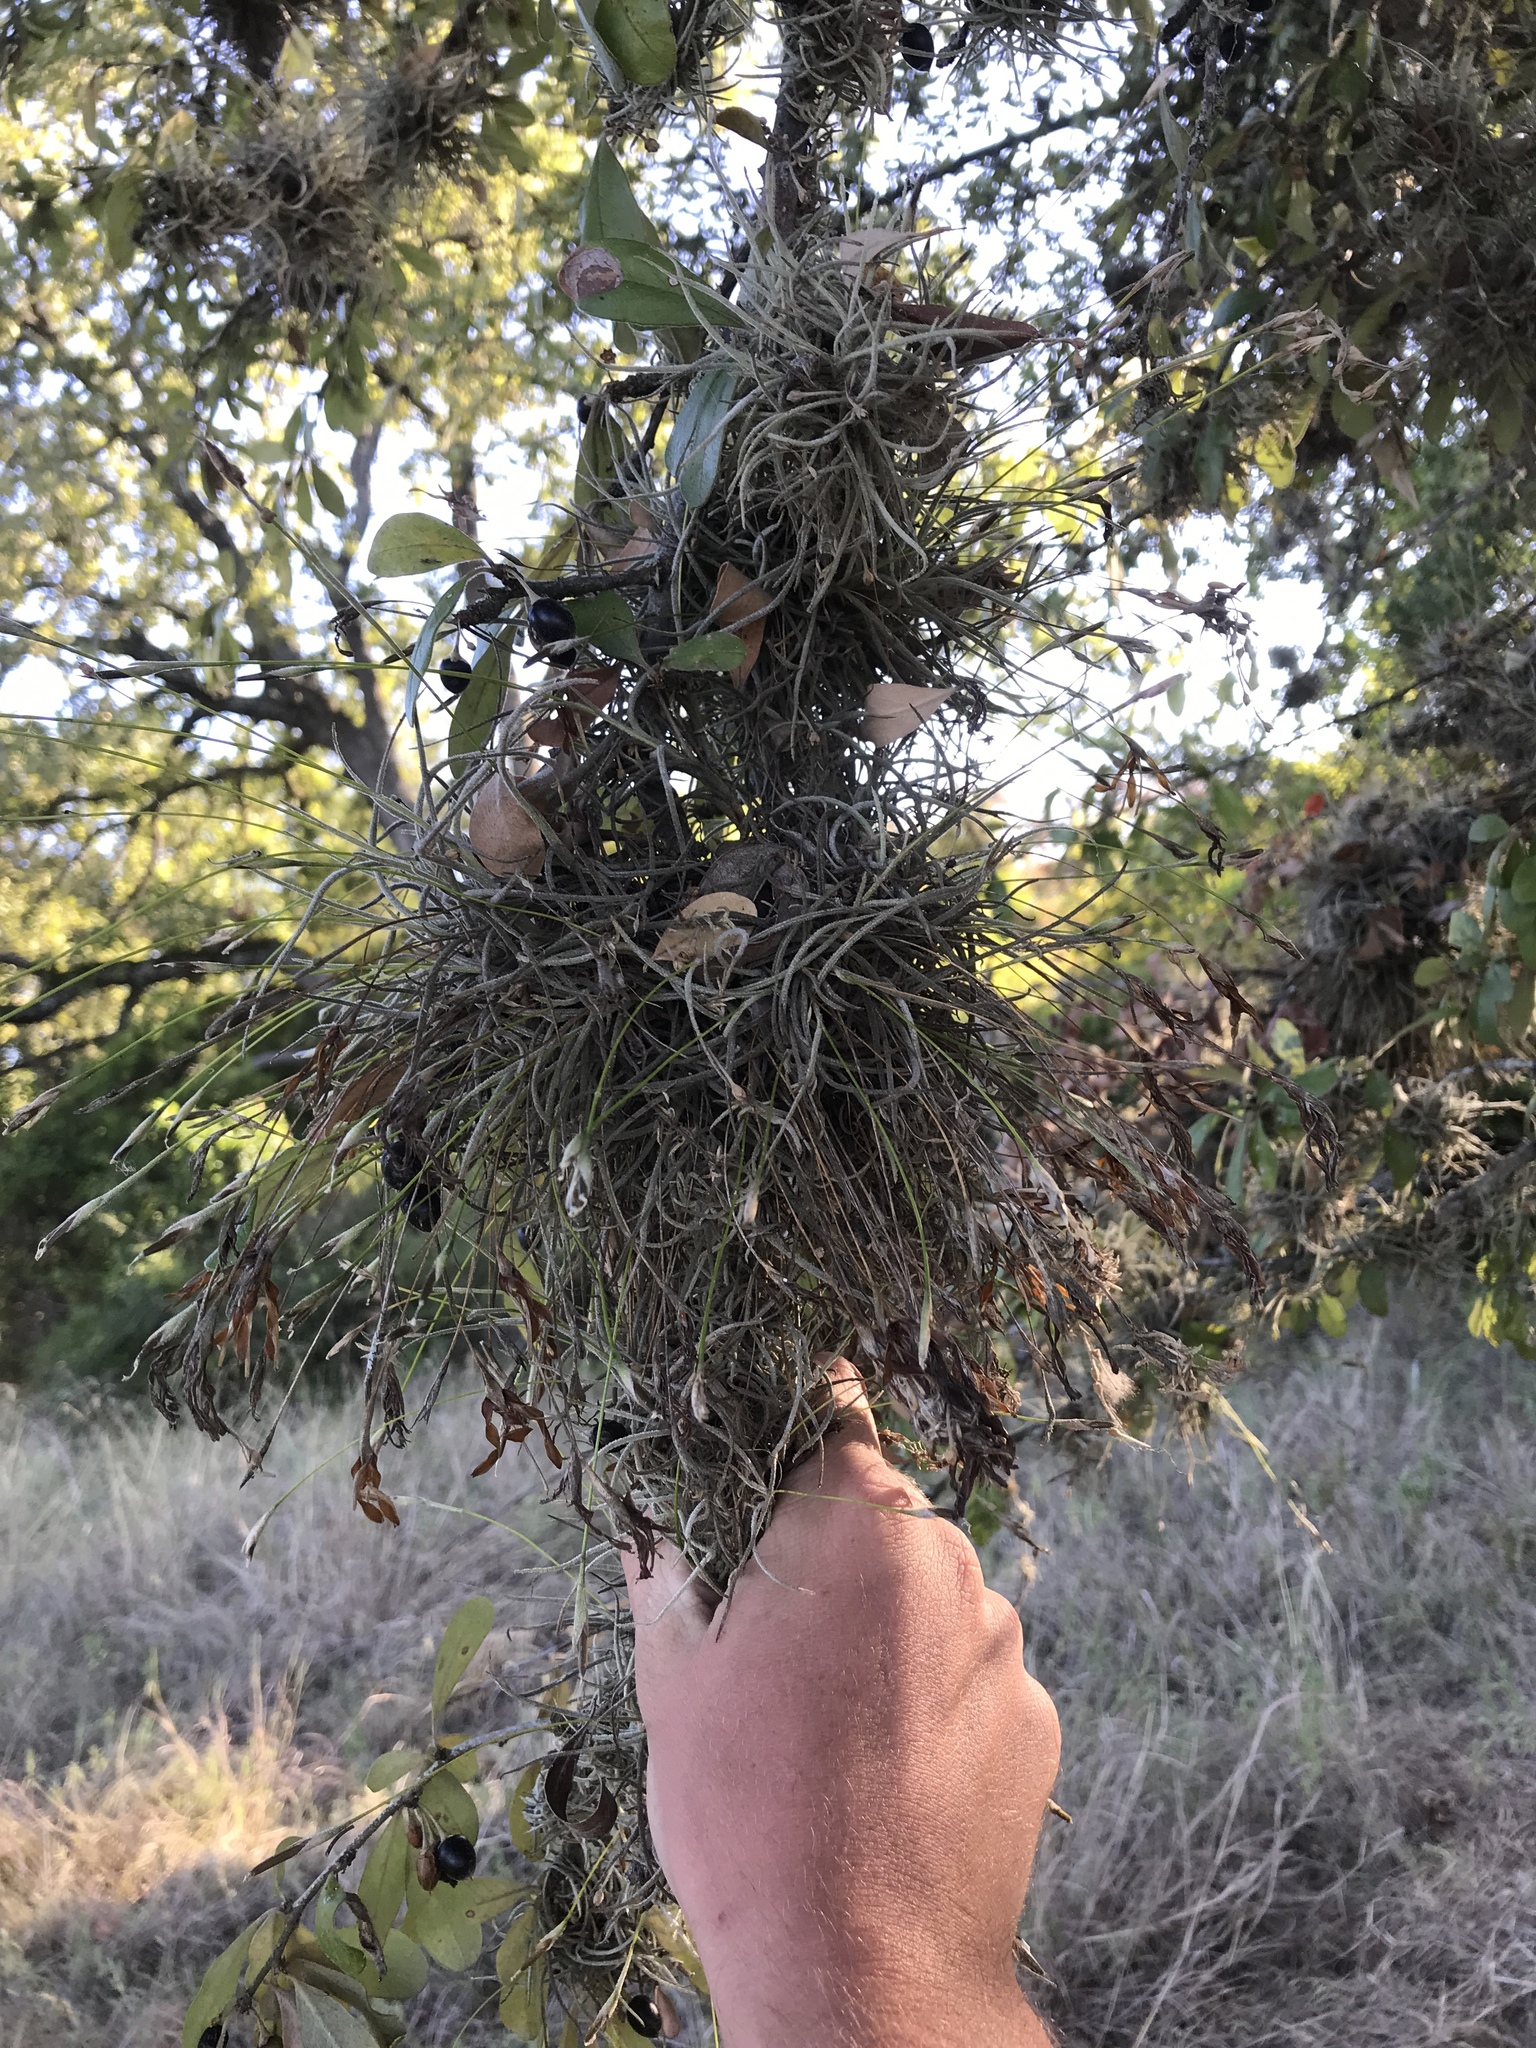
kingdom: Plantae
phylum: Tracheophyta
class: Liliopsida
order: Poales
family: Bromeliaceae
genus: Tillandsia
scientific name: Tillandsia recurvata
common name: Small ballmoss
